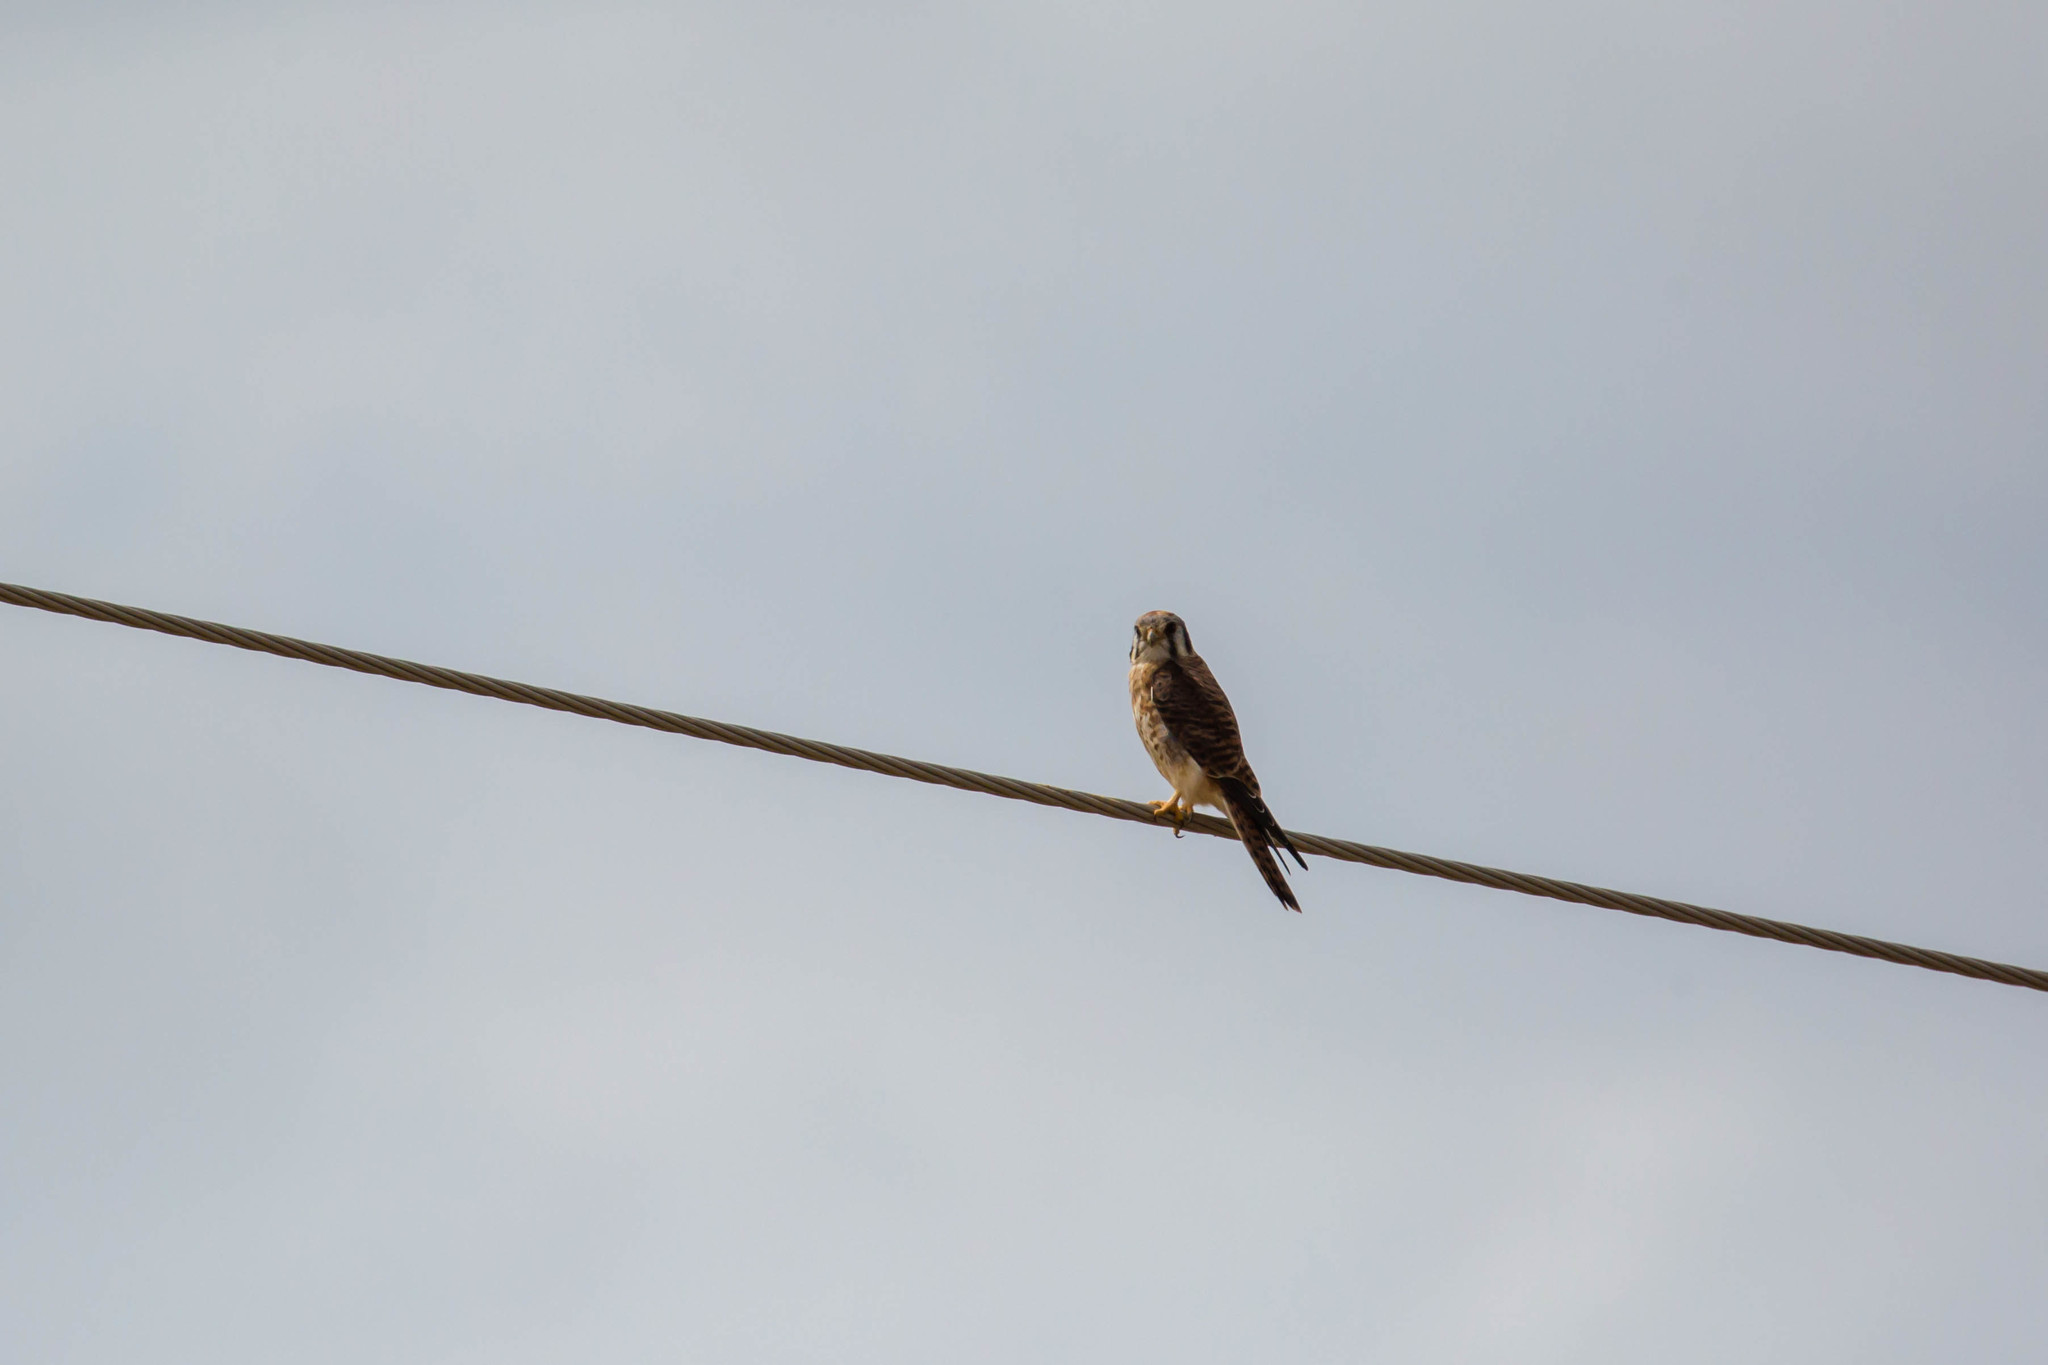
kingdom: Animalia
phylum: Chordata
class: Aves
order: Falconiformes
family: Falconidae
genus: Falco
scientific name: Falco sparverius
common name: American kestrel
